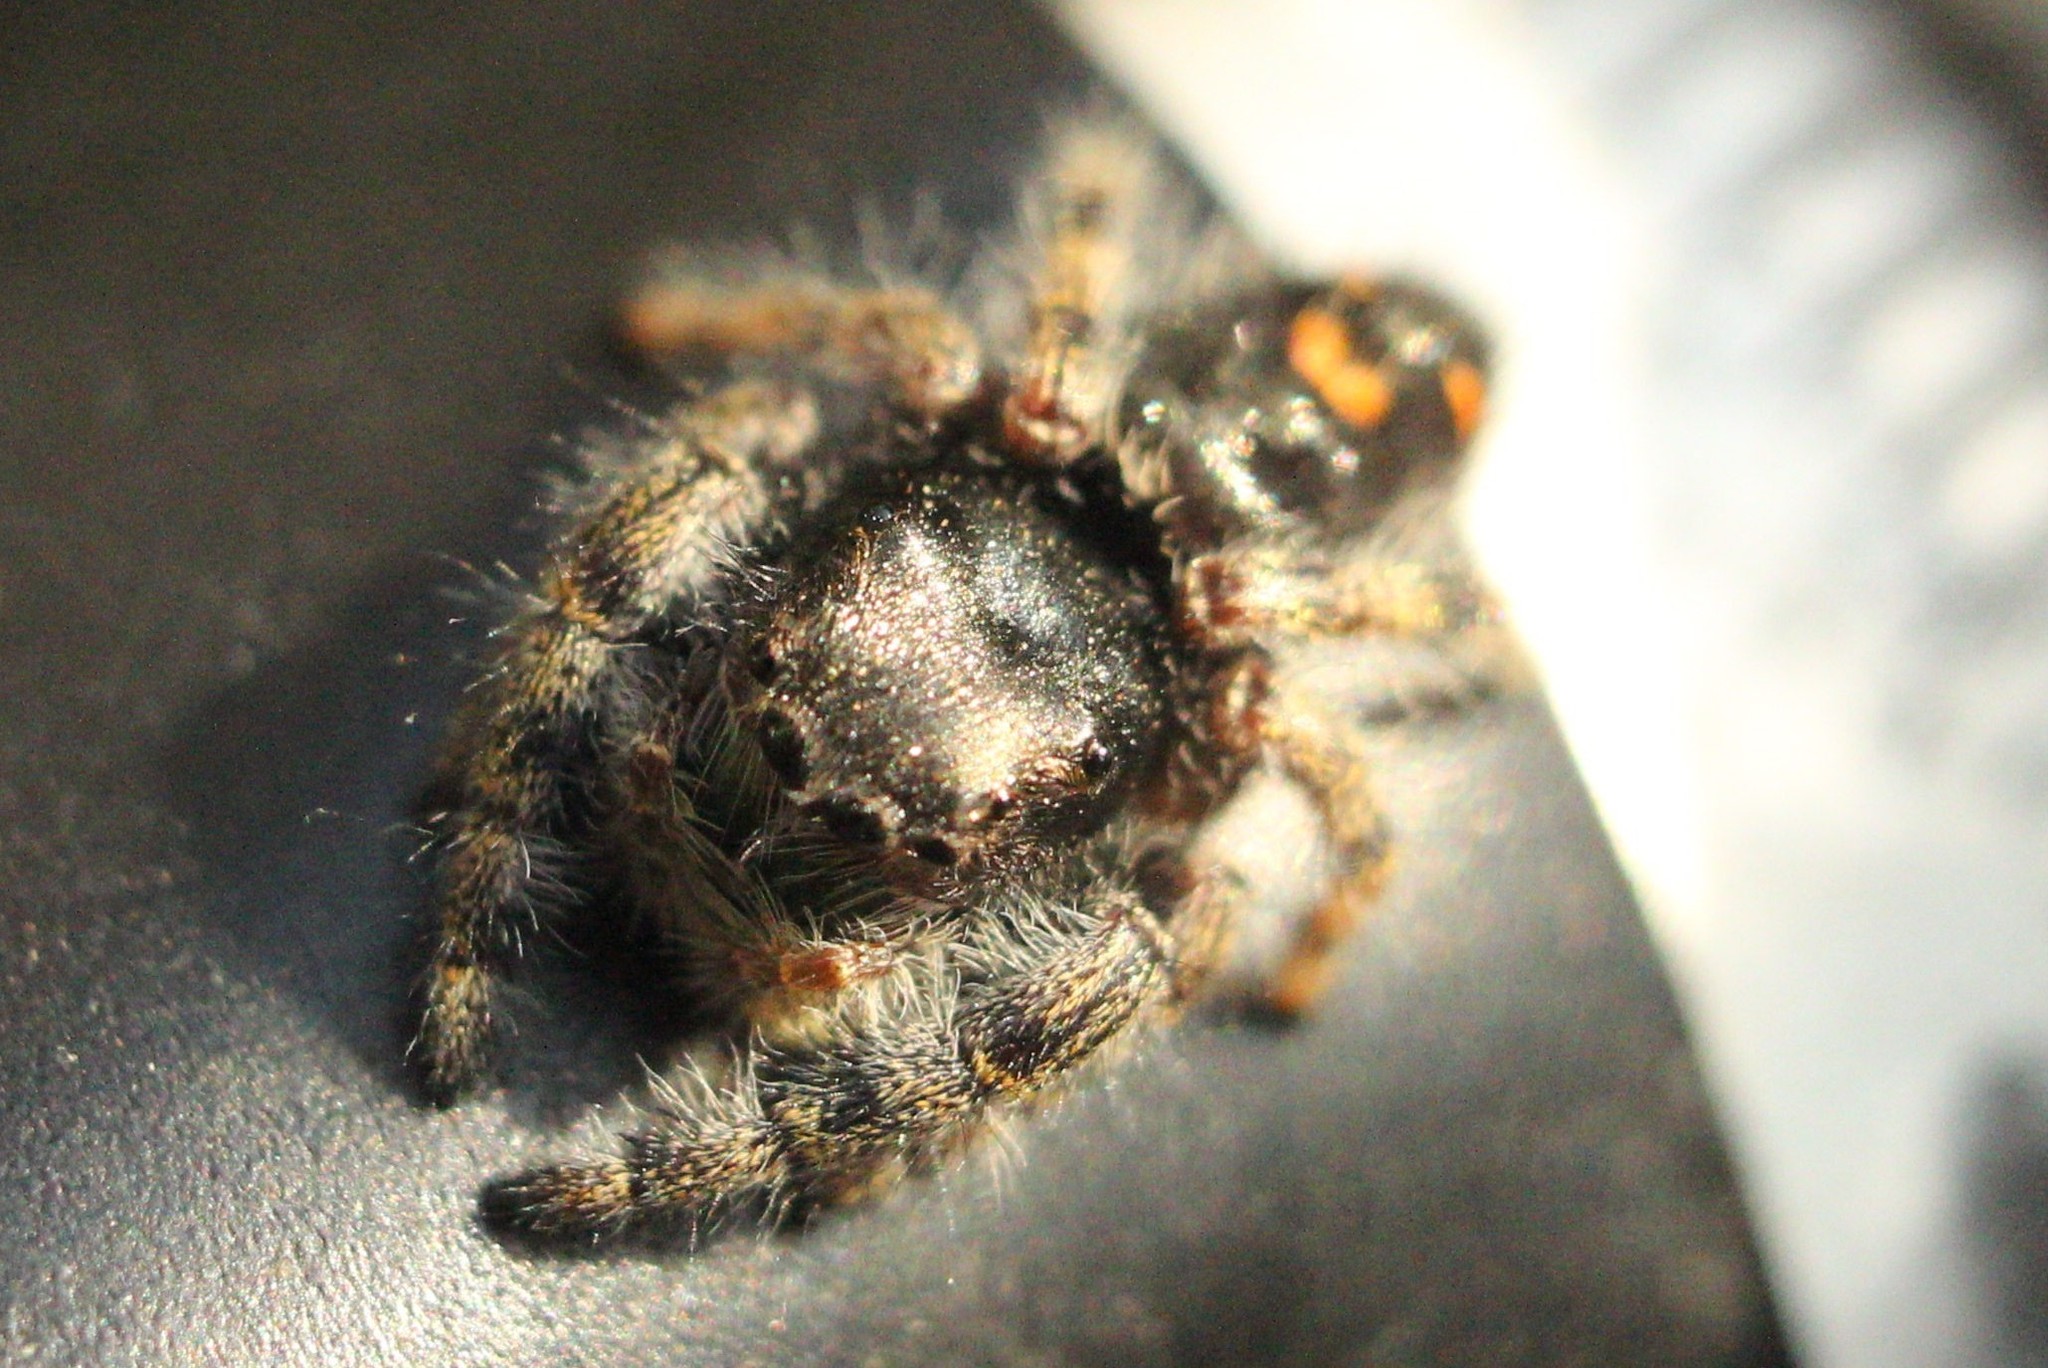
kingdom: Animalia
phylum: Arthropoda
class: Arachnida
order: Araneae
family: Salticidae
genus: Phidippus
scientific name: Phidippus audax
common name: Bold jumper
